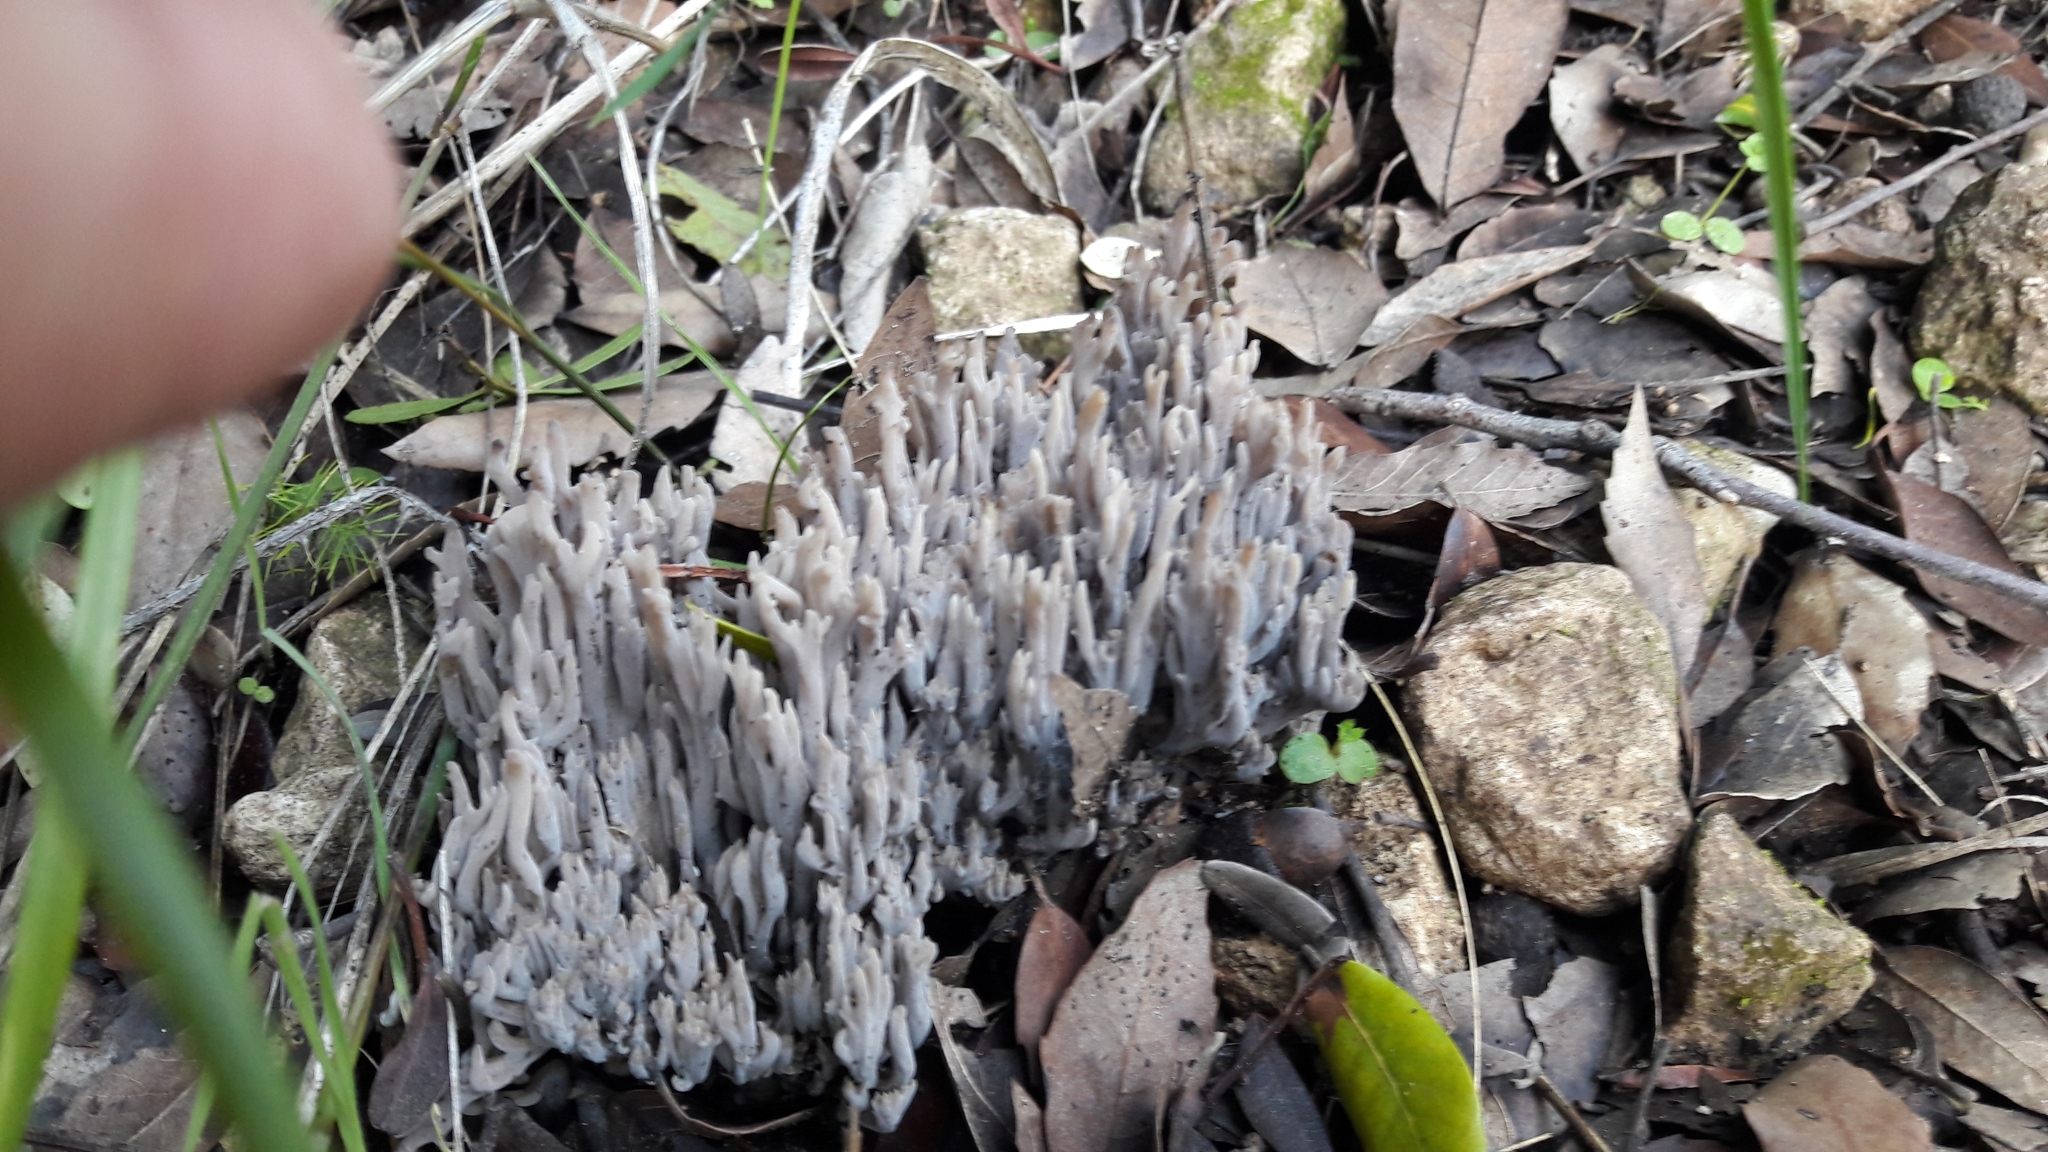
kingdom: Fungi
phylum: Basidiomycota
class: Agaricomycetes
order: Cantharellales
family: Hydnaceae
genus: Clavulina
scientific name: Clavulina cinerea
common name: Grey coral
